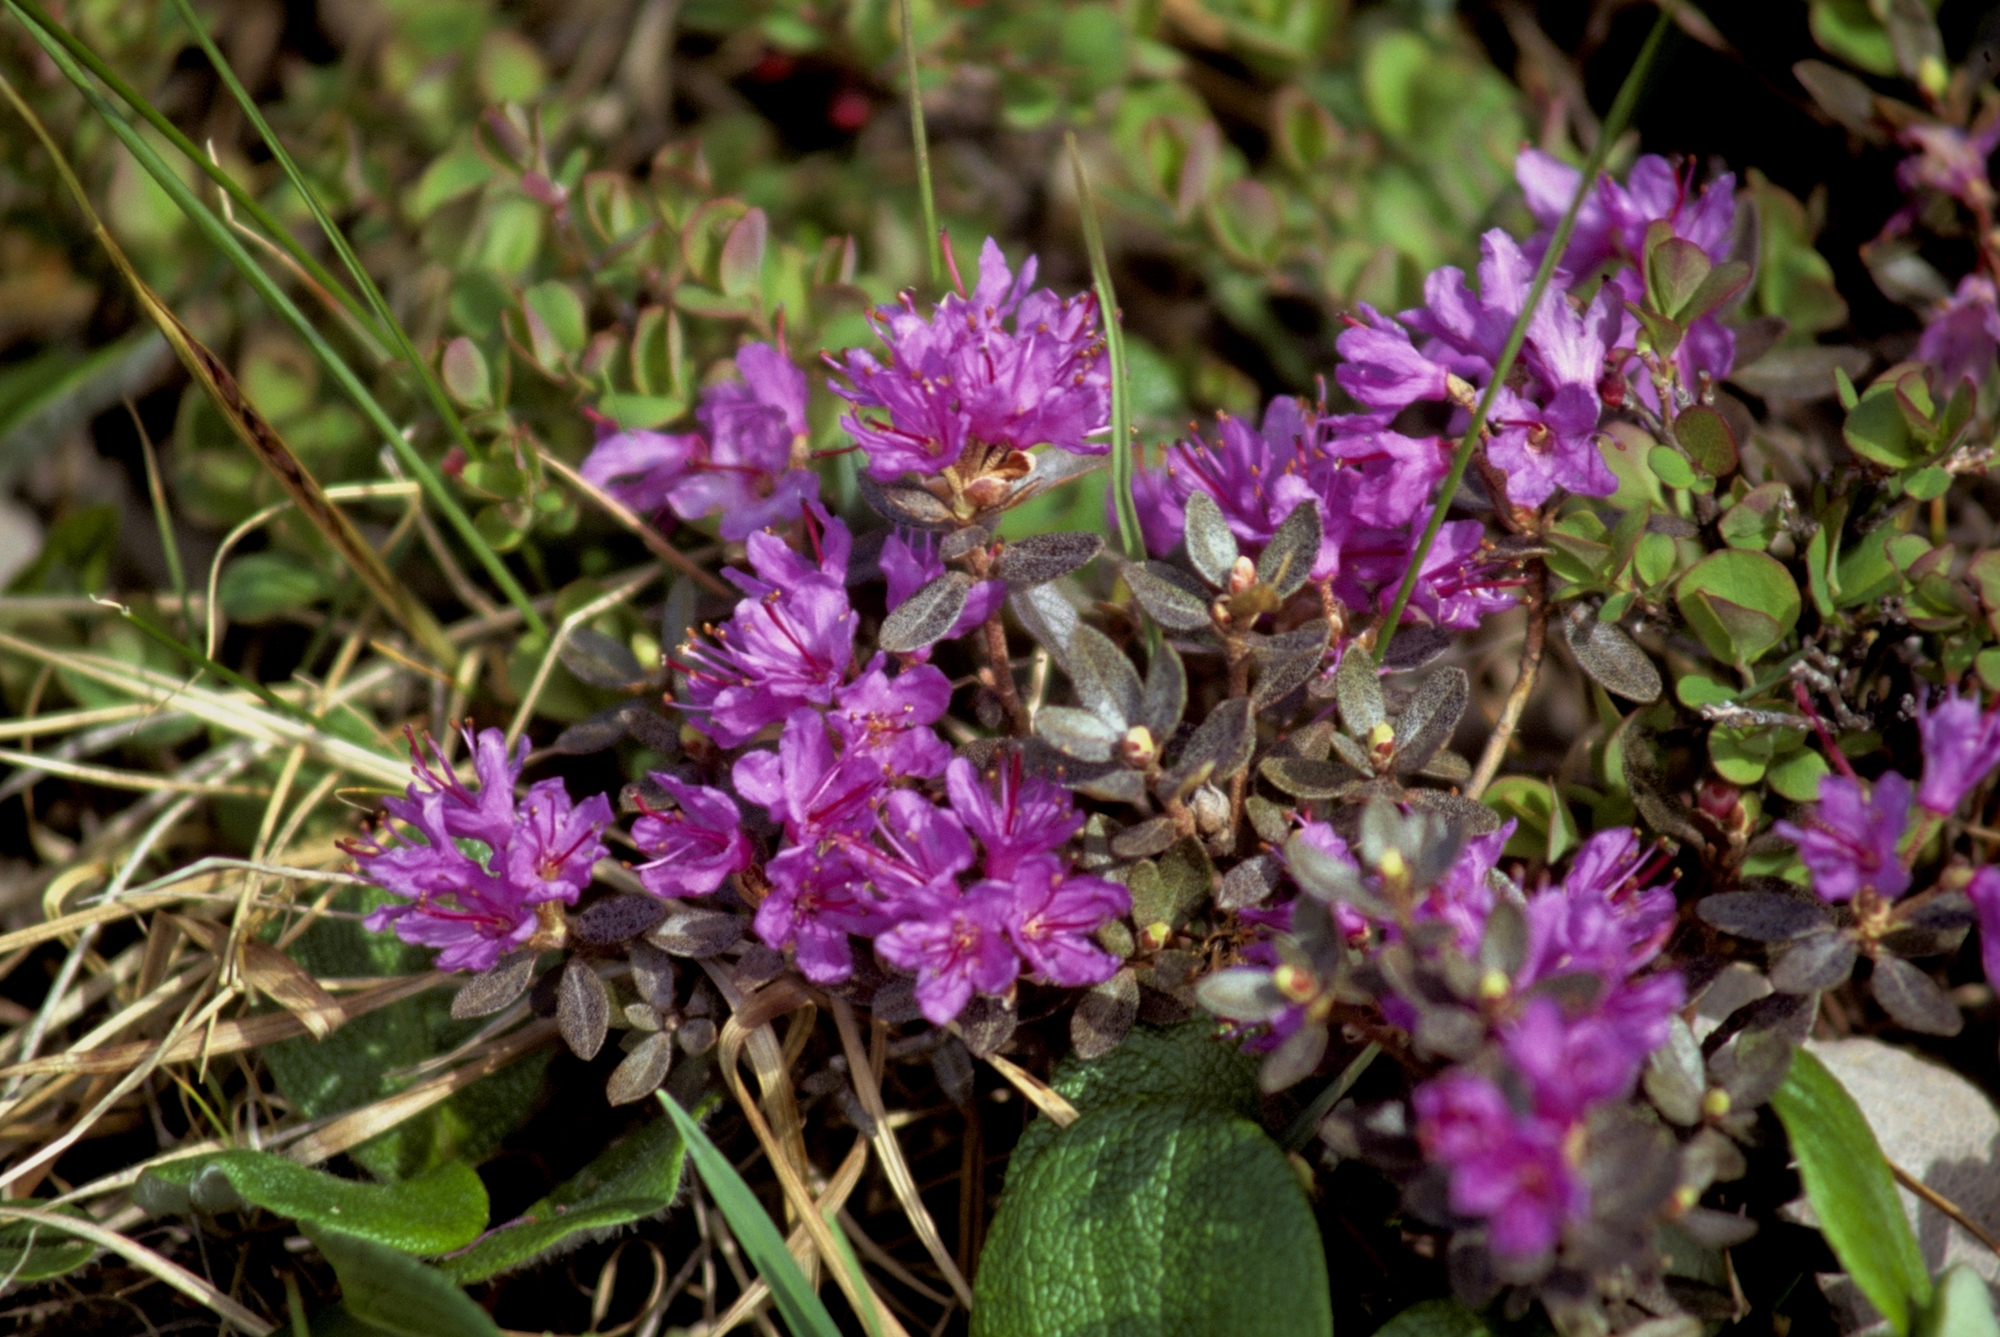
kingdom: Plantae
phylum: Tracheophyta
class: Magnoliopsida
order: Ericales
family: Ericaceae
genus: Rhododendron
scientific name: Rhododendron lapponicum
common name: Lapland rhododendron
